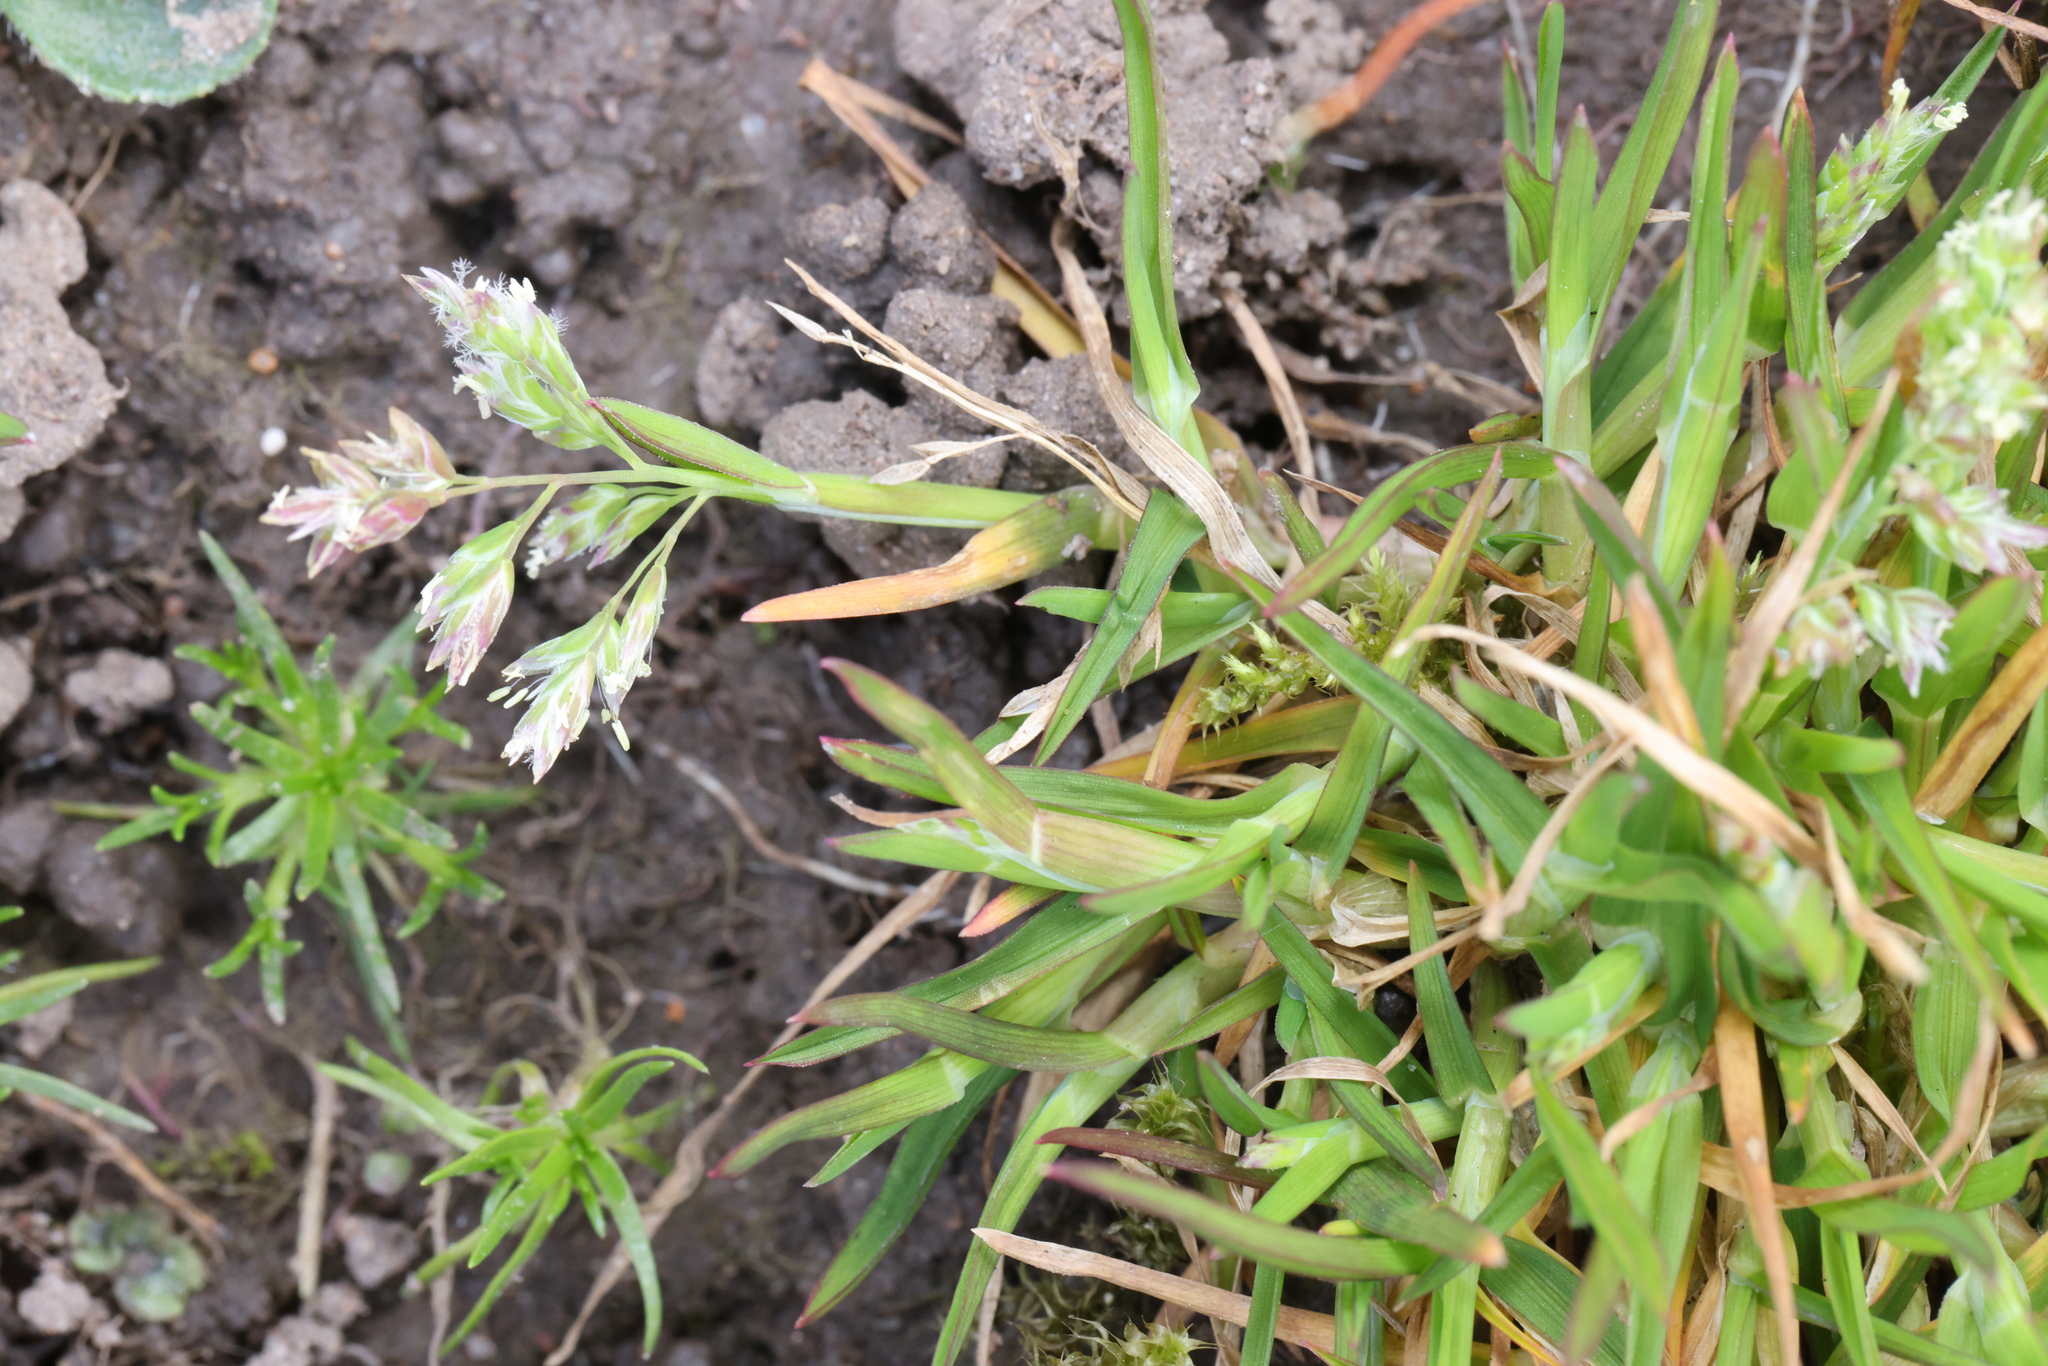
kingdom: Plantae
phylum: Tracheophyta
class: Liliopsida
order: Poales
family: Poaceae
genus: Poa
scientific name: Poa annua
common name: Annual bluegrass
